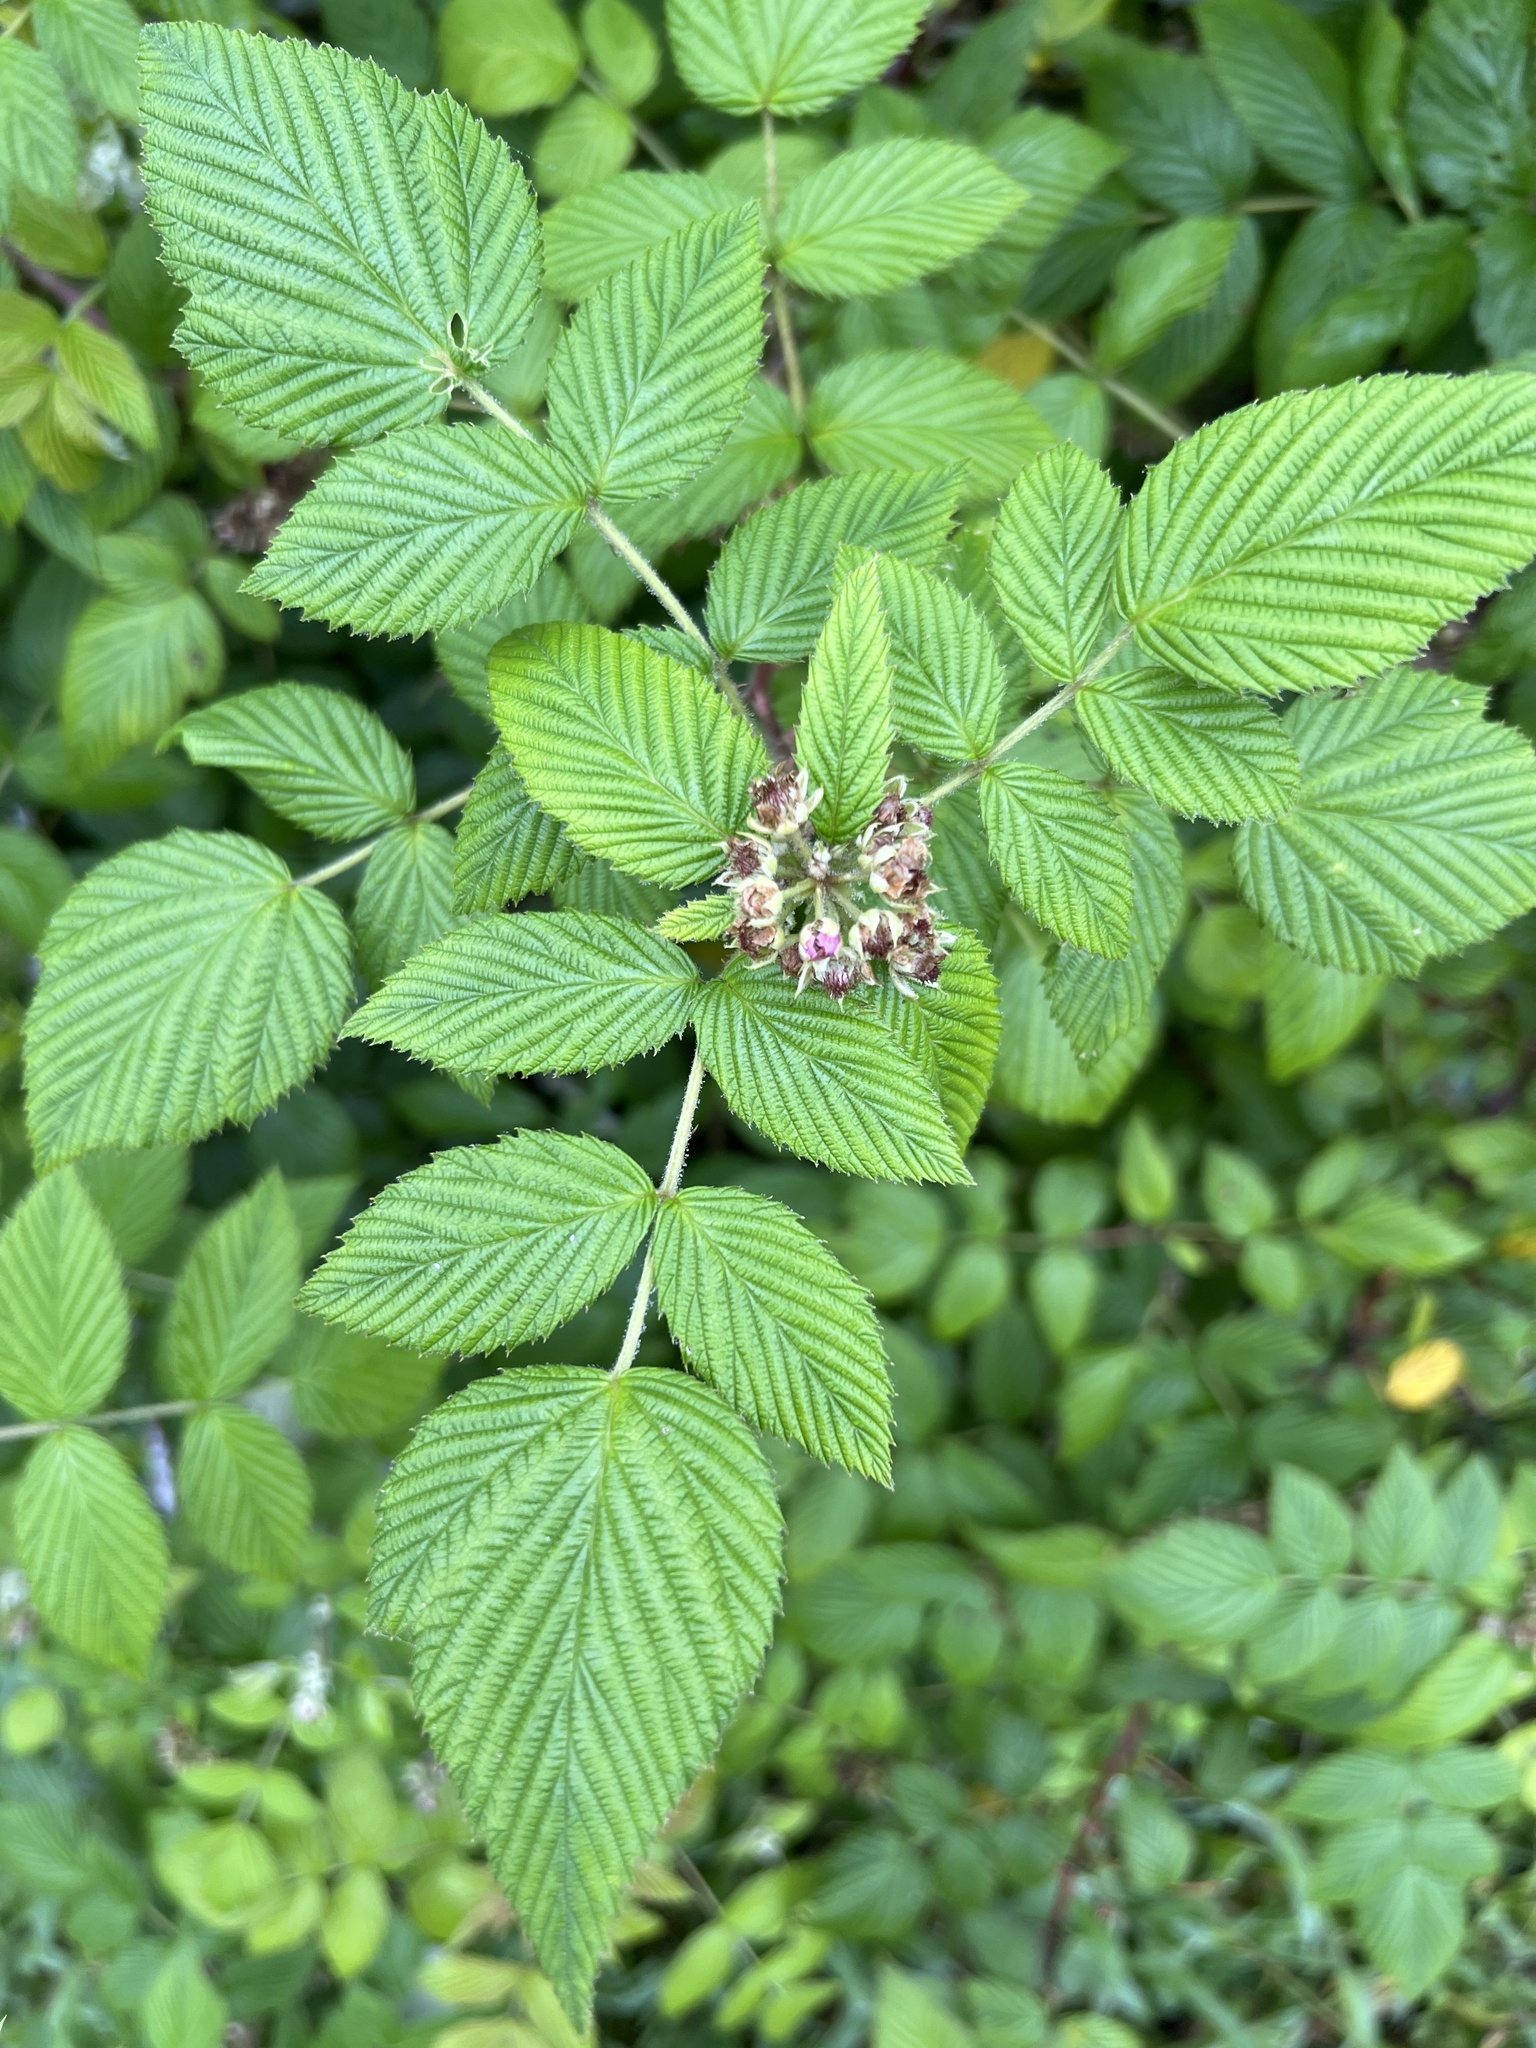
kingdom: Plantae
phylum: Tracheophyta
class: Magnoliopsida
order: Rosales
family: Rosaceae
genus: Rubus
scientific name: Rubus niveus
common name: Snowpeaks raspberry
